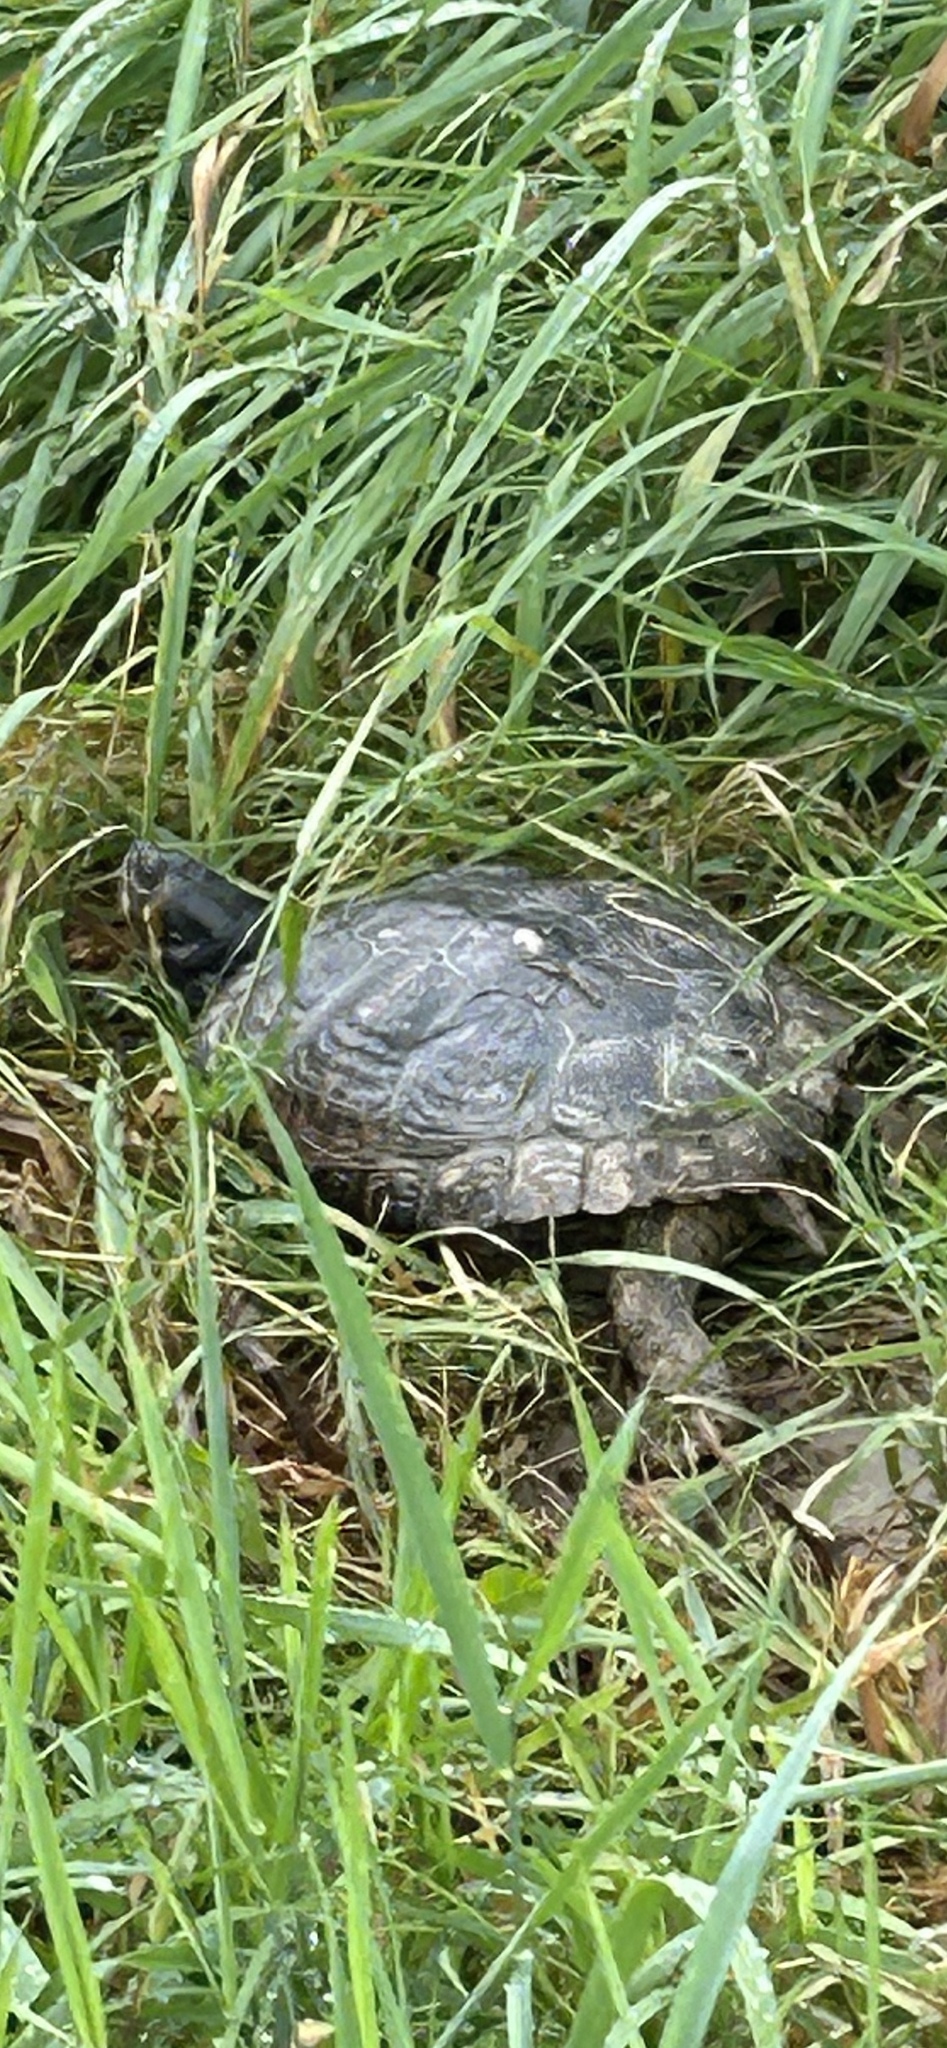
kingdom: Animalia
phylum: Chordata
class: Testudines
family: Emydidae
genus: Trachemys
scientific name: Trachemys scripta
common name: Slider
